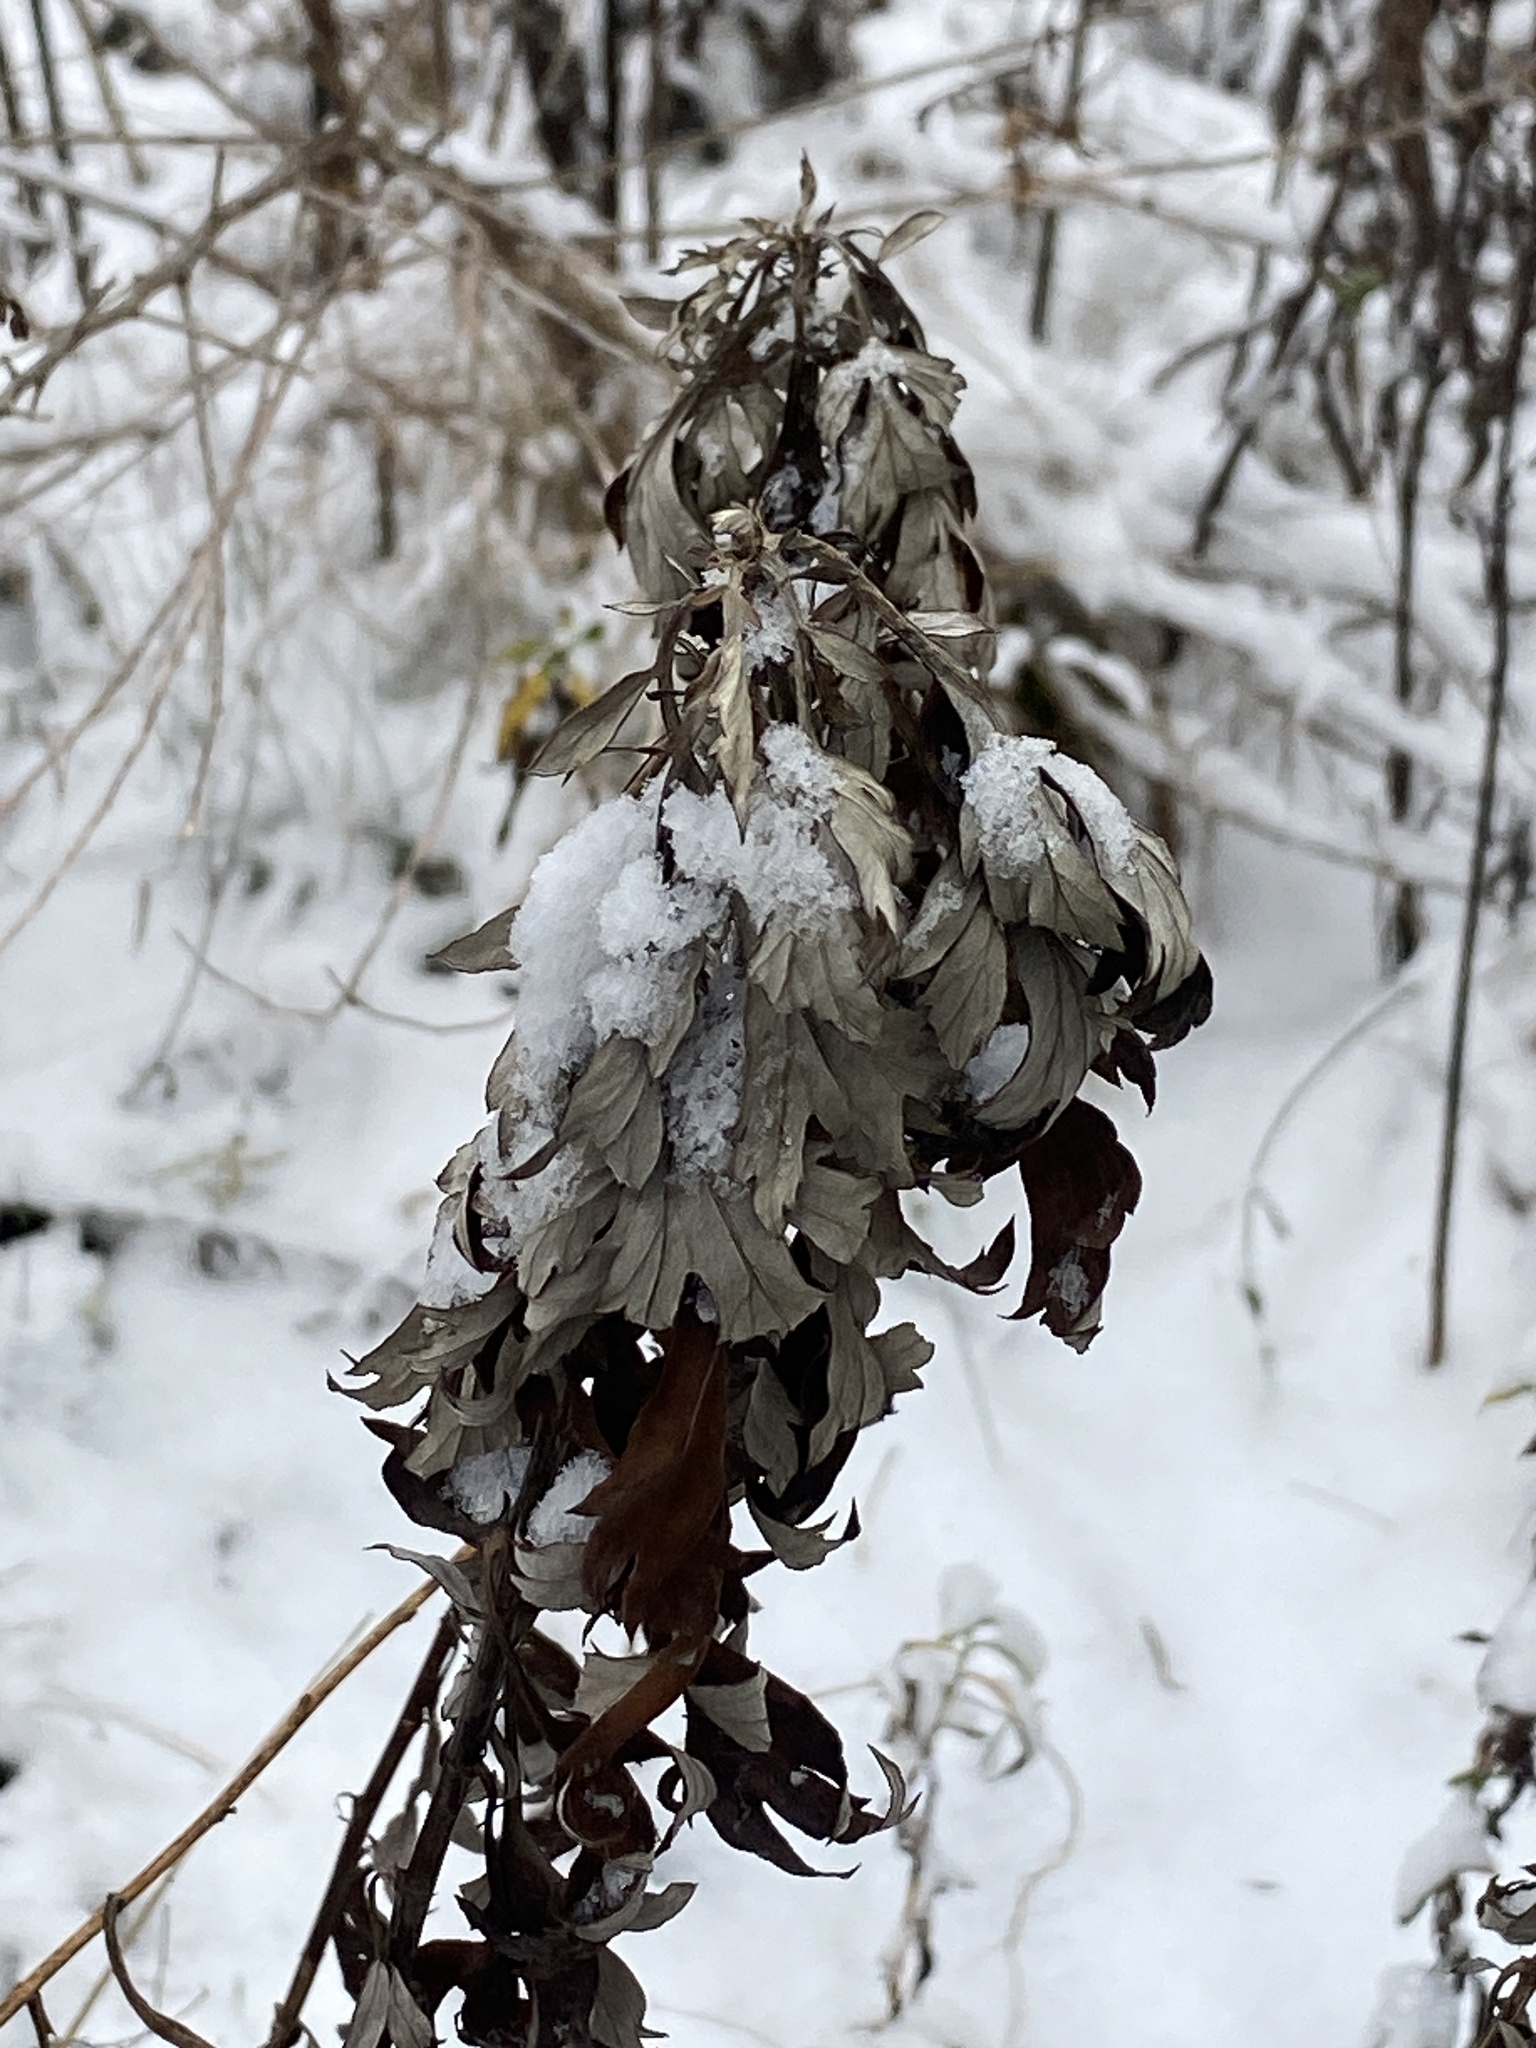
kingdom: Plantae
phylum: Tracheophyta
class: Magnoliopsida
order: Asterales
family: Asteraceae
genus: Artemisia
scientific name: Artemisia vulgaris
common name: Mugwort
